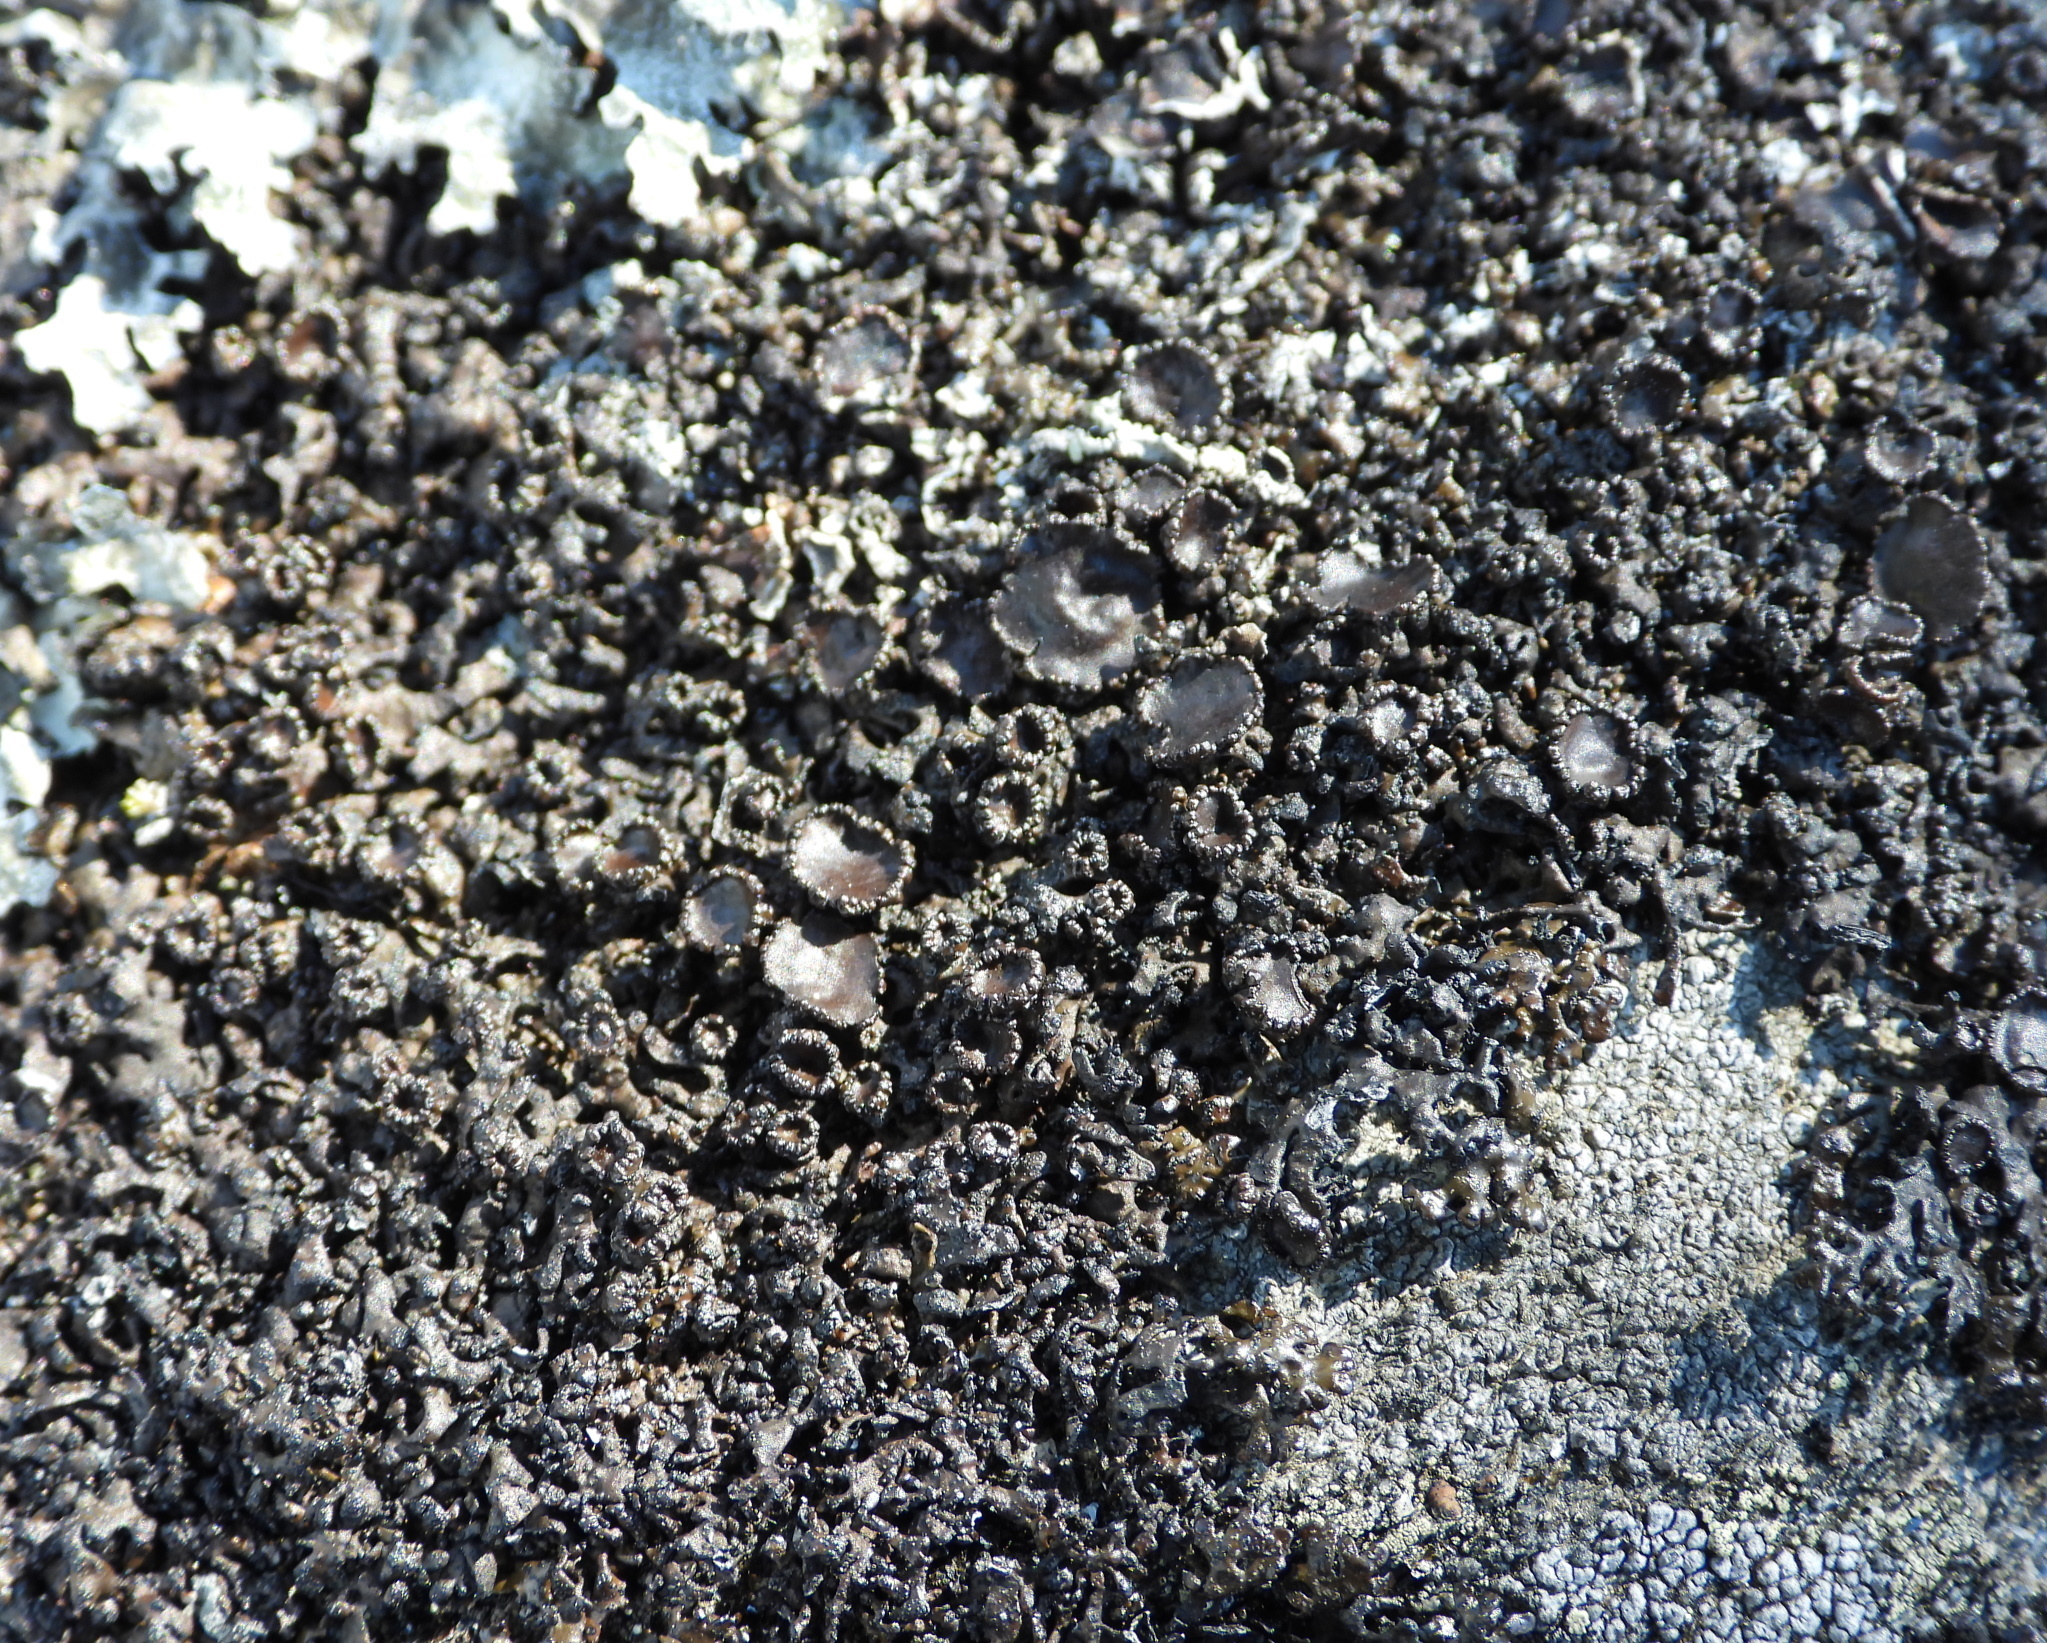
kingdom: Fungi
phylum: Ascomycota
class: Lecanoromycetes
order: Lecanorales
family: Parmeliaceae
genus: Melanelia
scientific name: Melanelia stygia
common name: Alpine camouflage lichen
